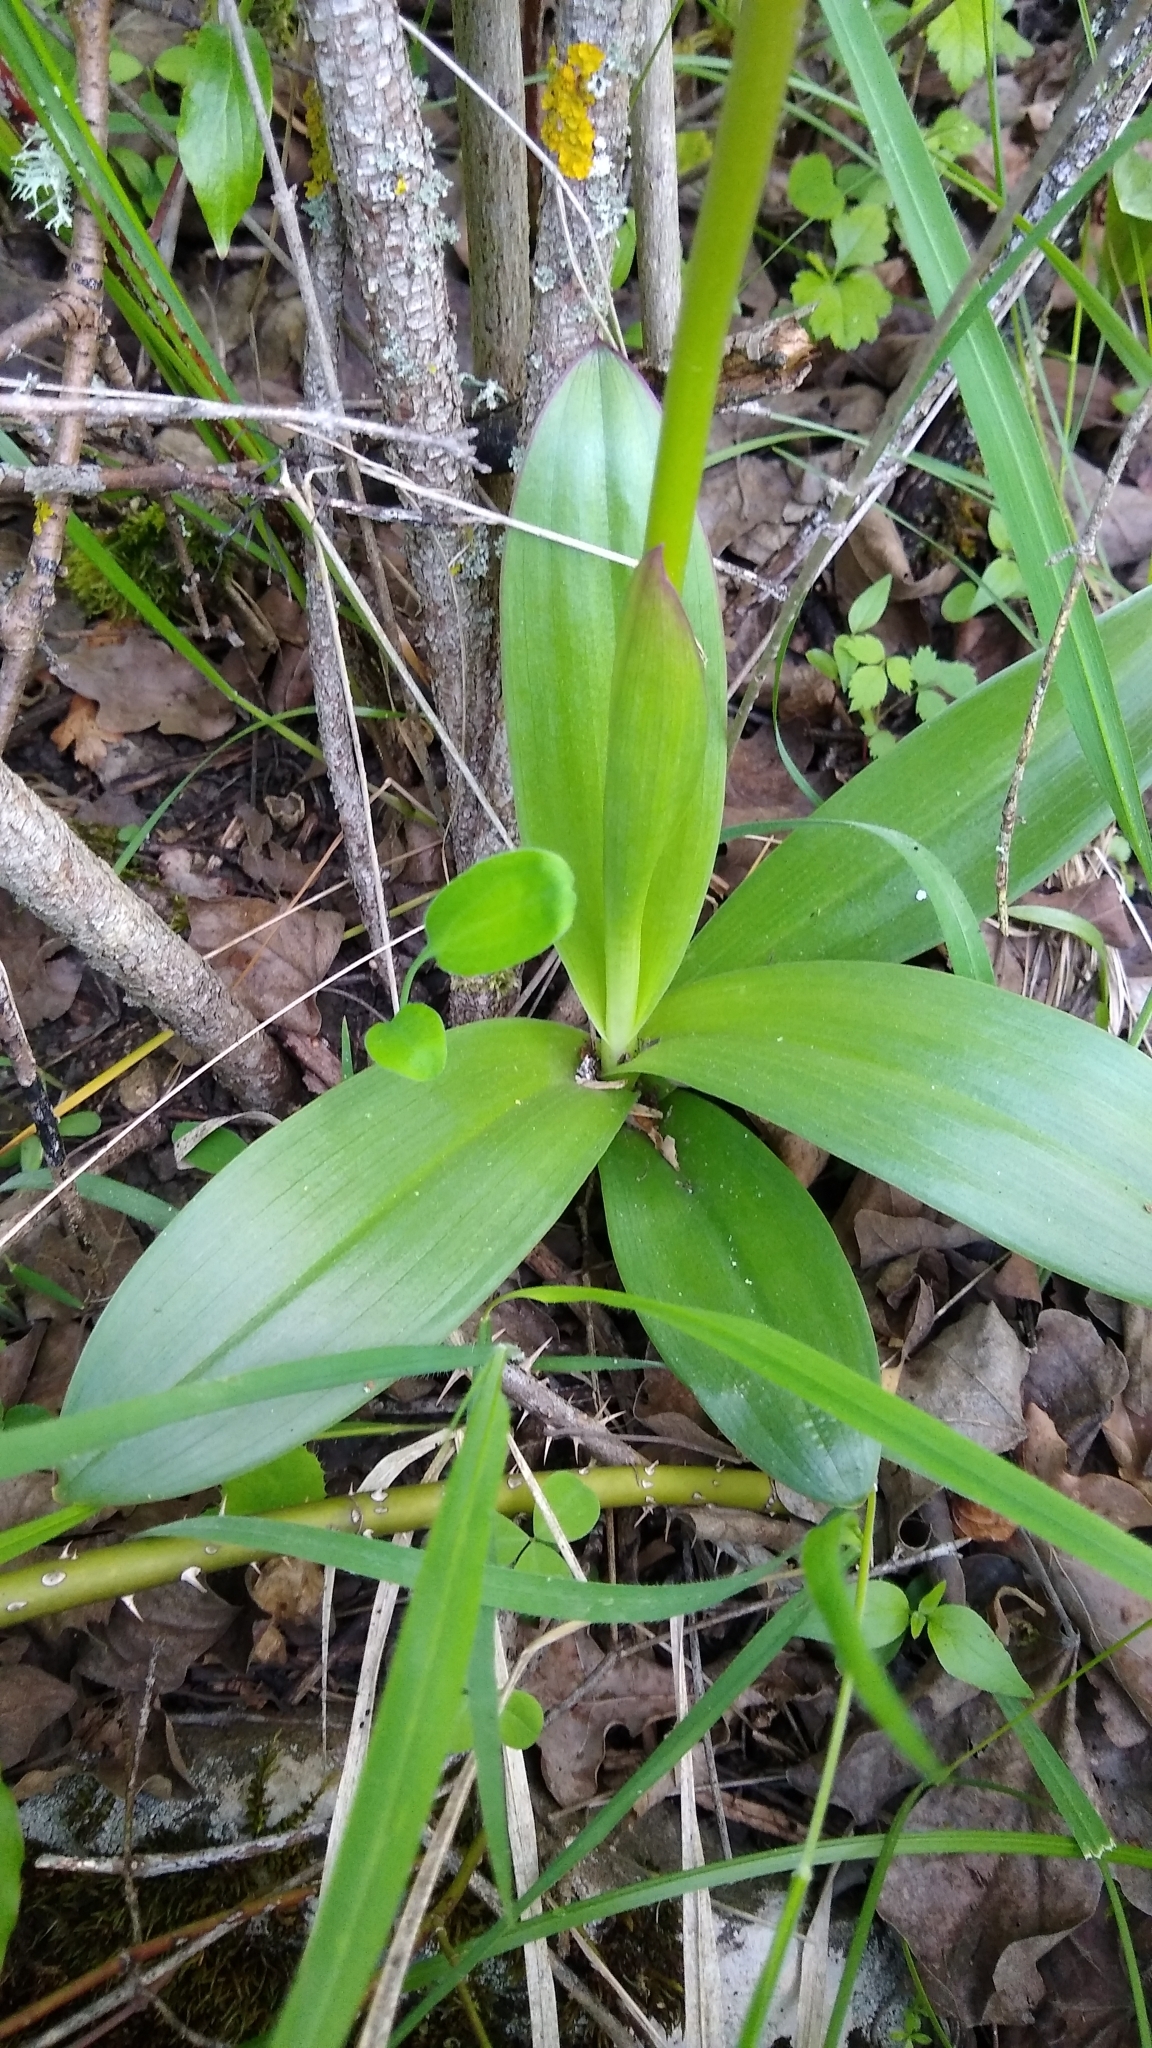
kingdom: Plantae
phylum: Tracheophyta
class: Liliopsida
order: Asparagales
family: Orchidaceae
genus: Orchis
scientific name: Orchis militaris
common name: Military orchid
